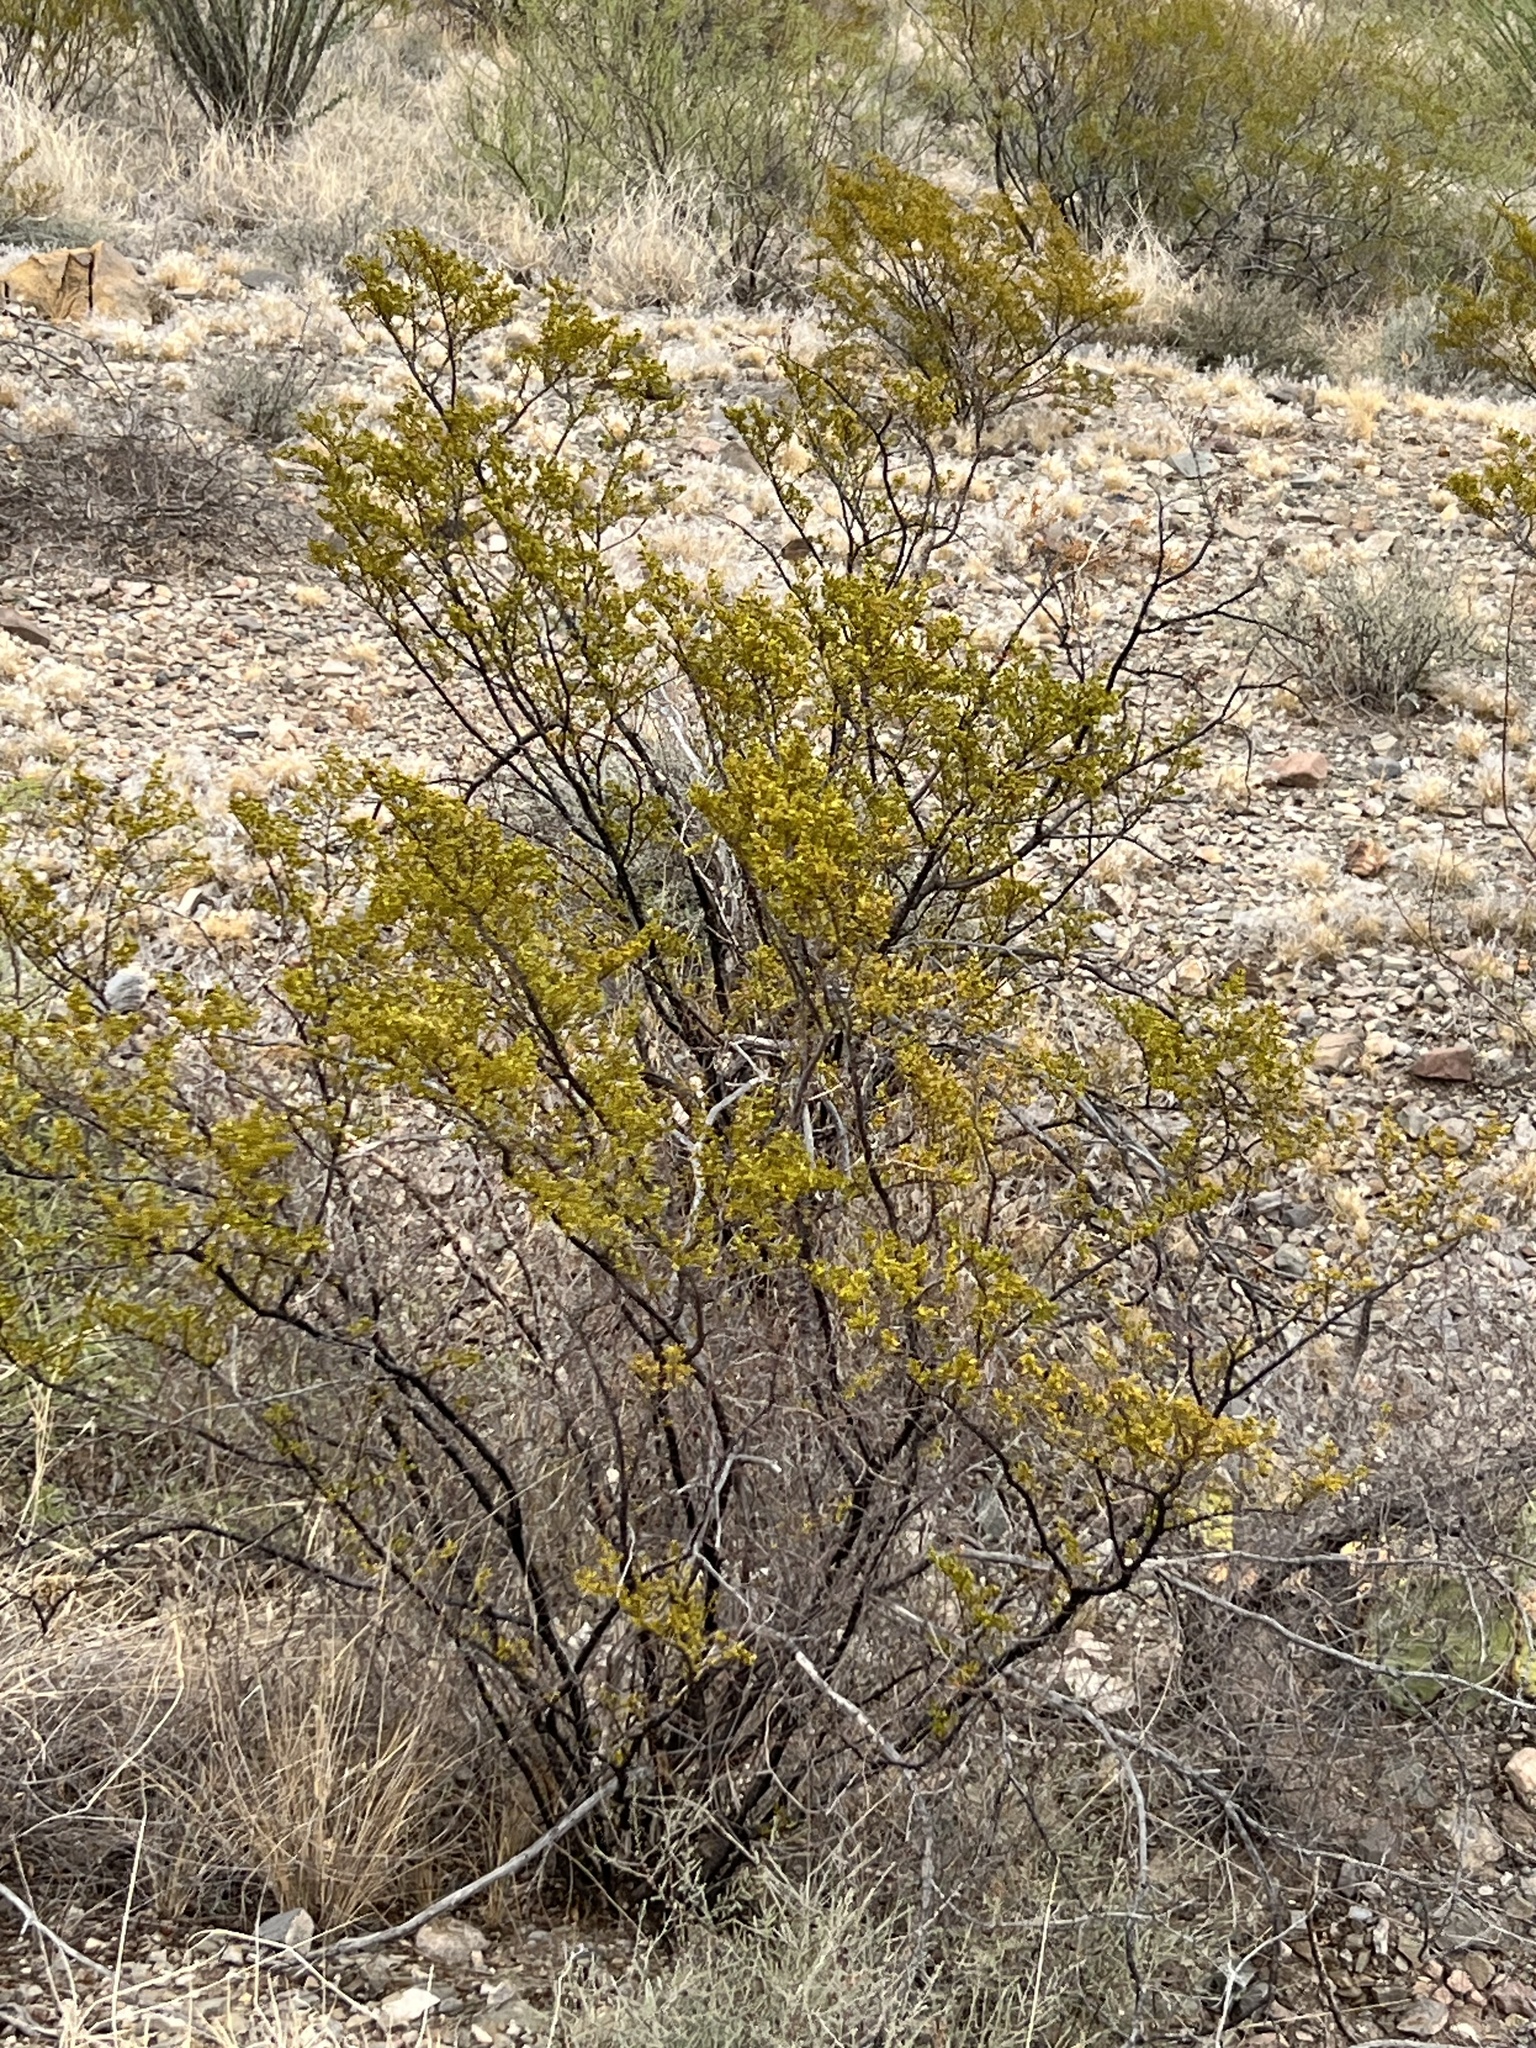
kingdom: Plantae
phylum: Tracheophyta
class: Magnoliopsida
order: Zygophyllales
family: Zygophyllaceae
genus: Larrea
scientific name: Larrea tridentata
